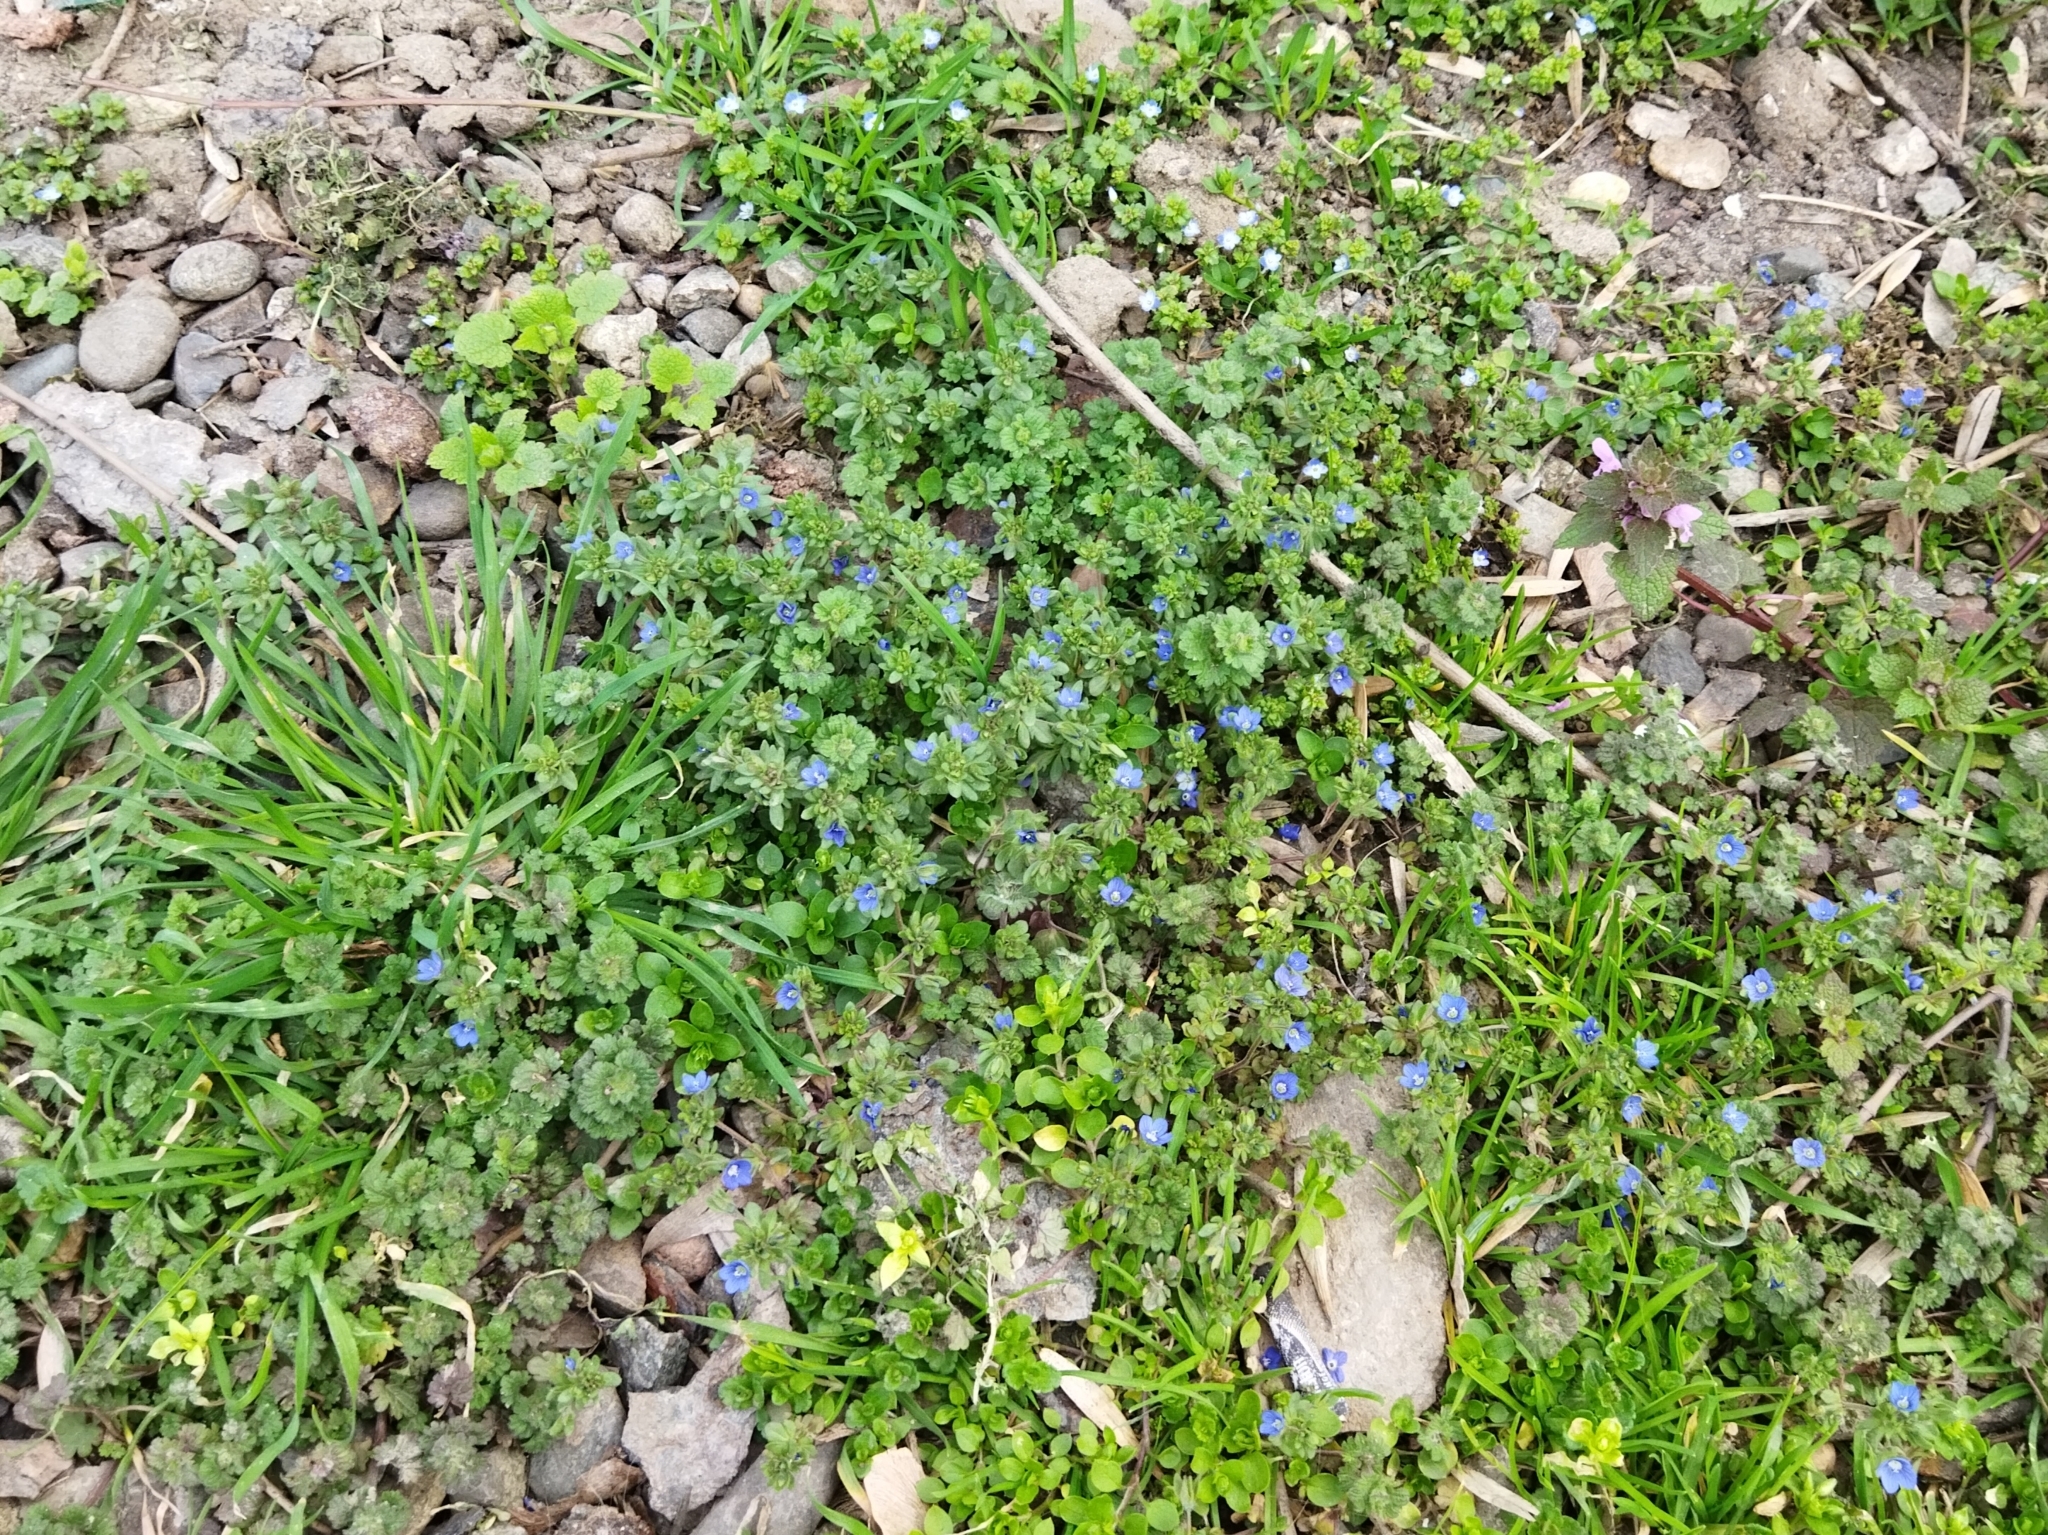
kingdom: Plantae
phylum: Tracheophyta
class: Magnoliopsida
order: Lamiales
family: Plantaginaceae
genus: Veronica
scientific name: Veronica triphyllos
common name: Fingered speedwell
